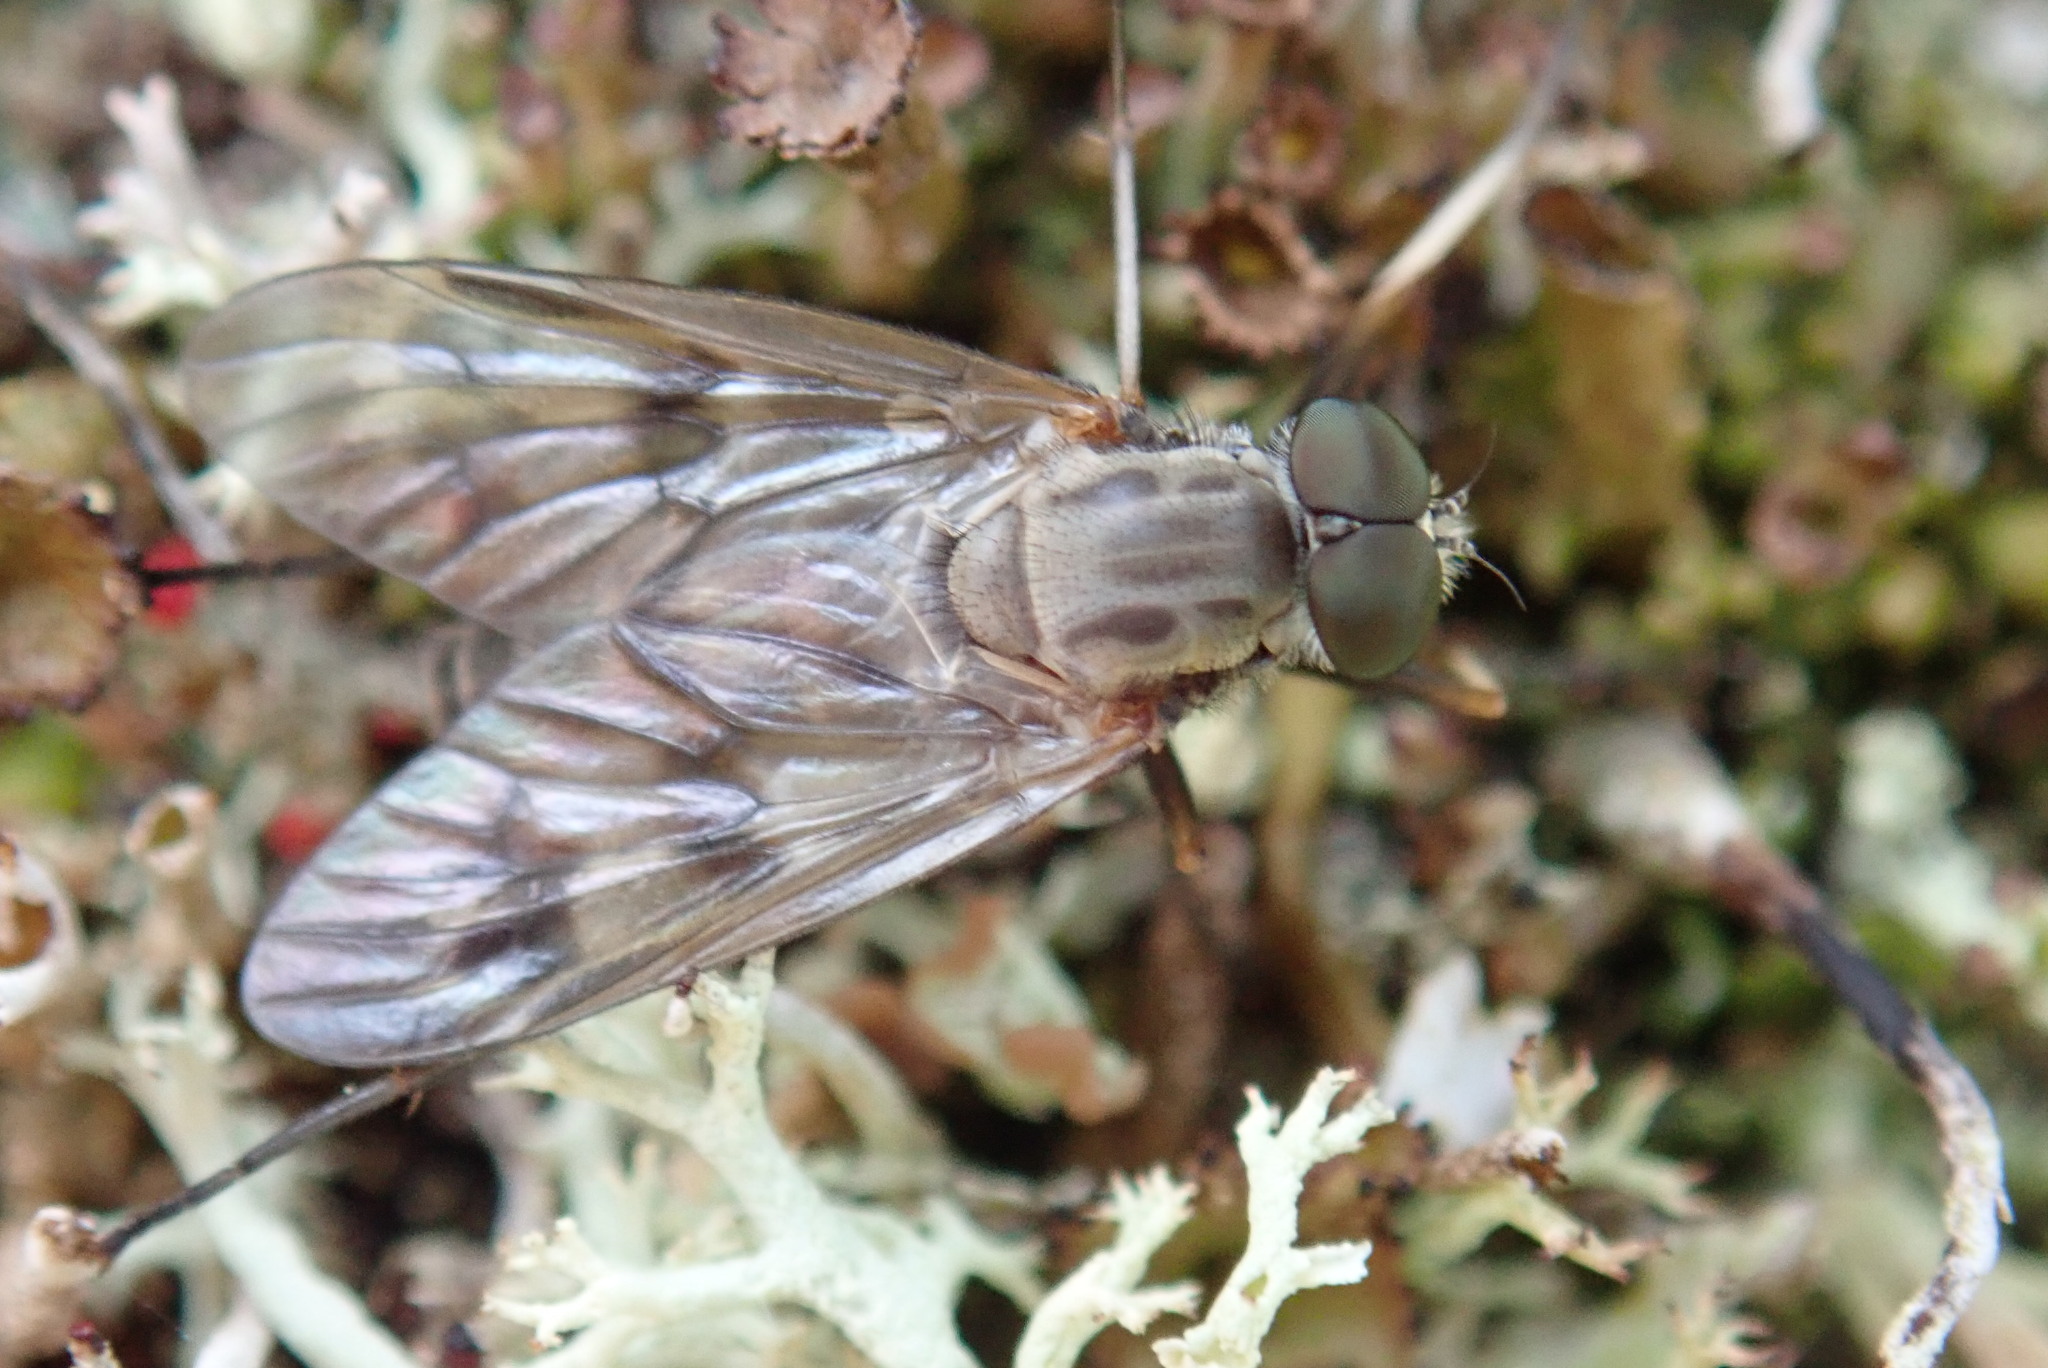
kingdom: Animalia
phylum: Arthropoda
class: Insecta
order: Diptera
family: Rhagionidae
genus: Rhagio
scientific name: Rhagio mystaceus
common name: Common snipe fly
